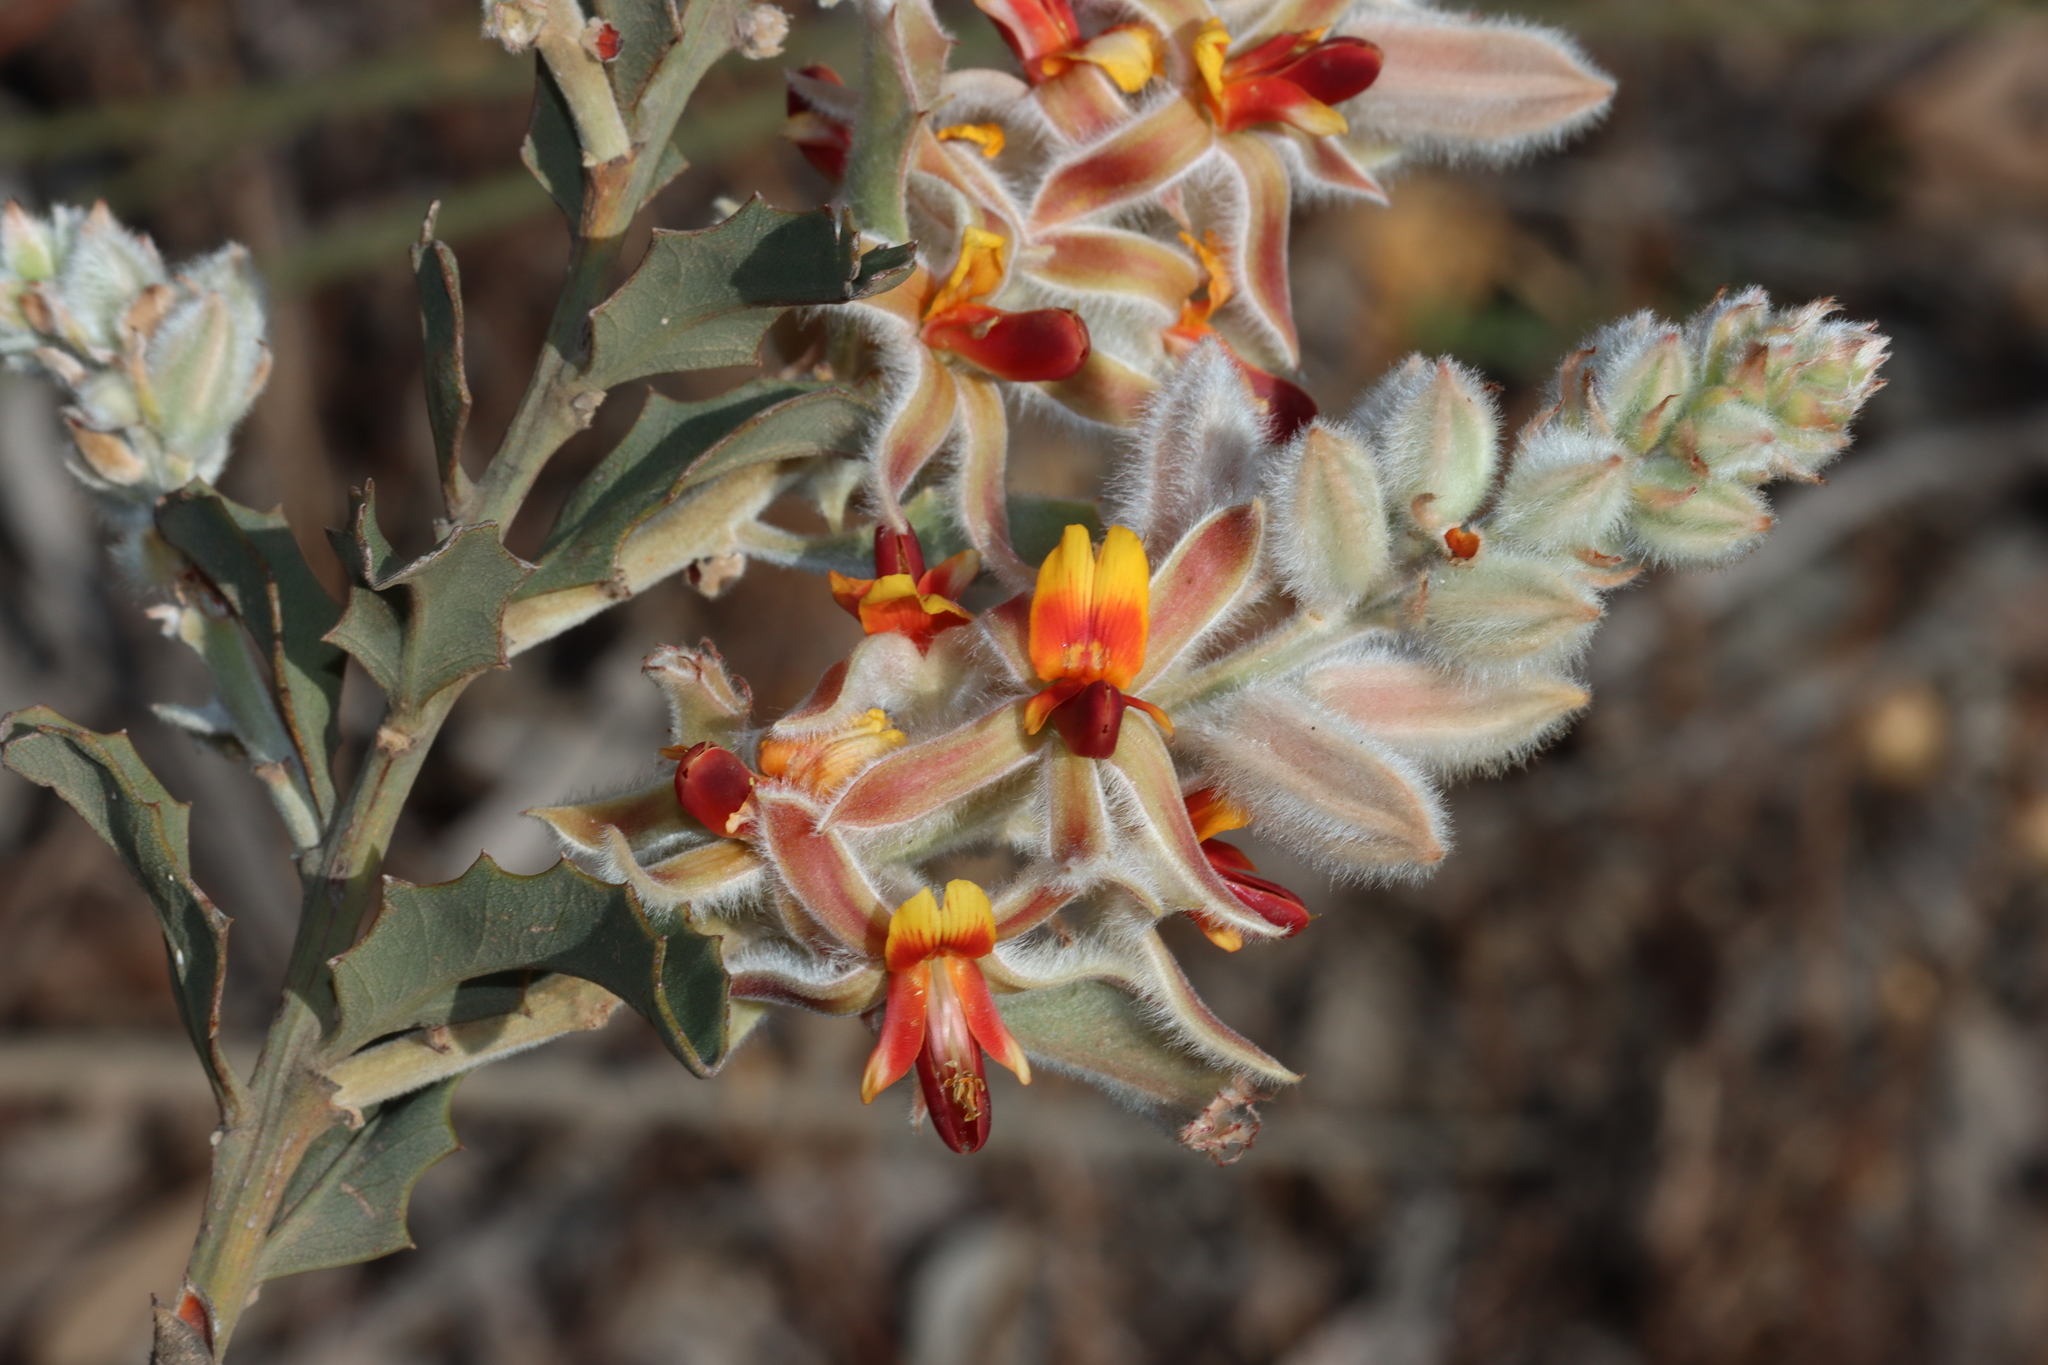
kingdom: Plantae
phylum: Tracheophyta
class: Magnoliopsida
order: Fabales
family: Fabaceae
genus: Jacksonia
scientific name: Jacksonia floribunda
